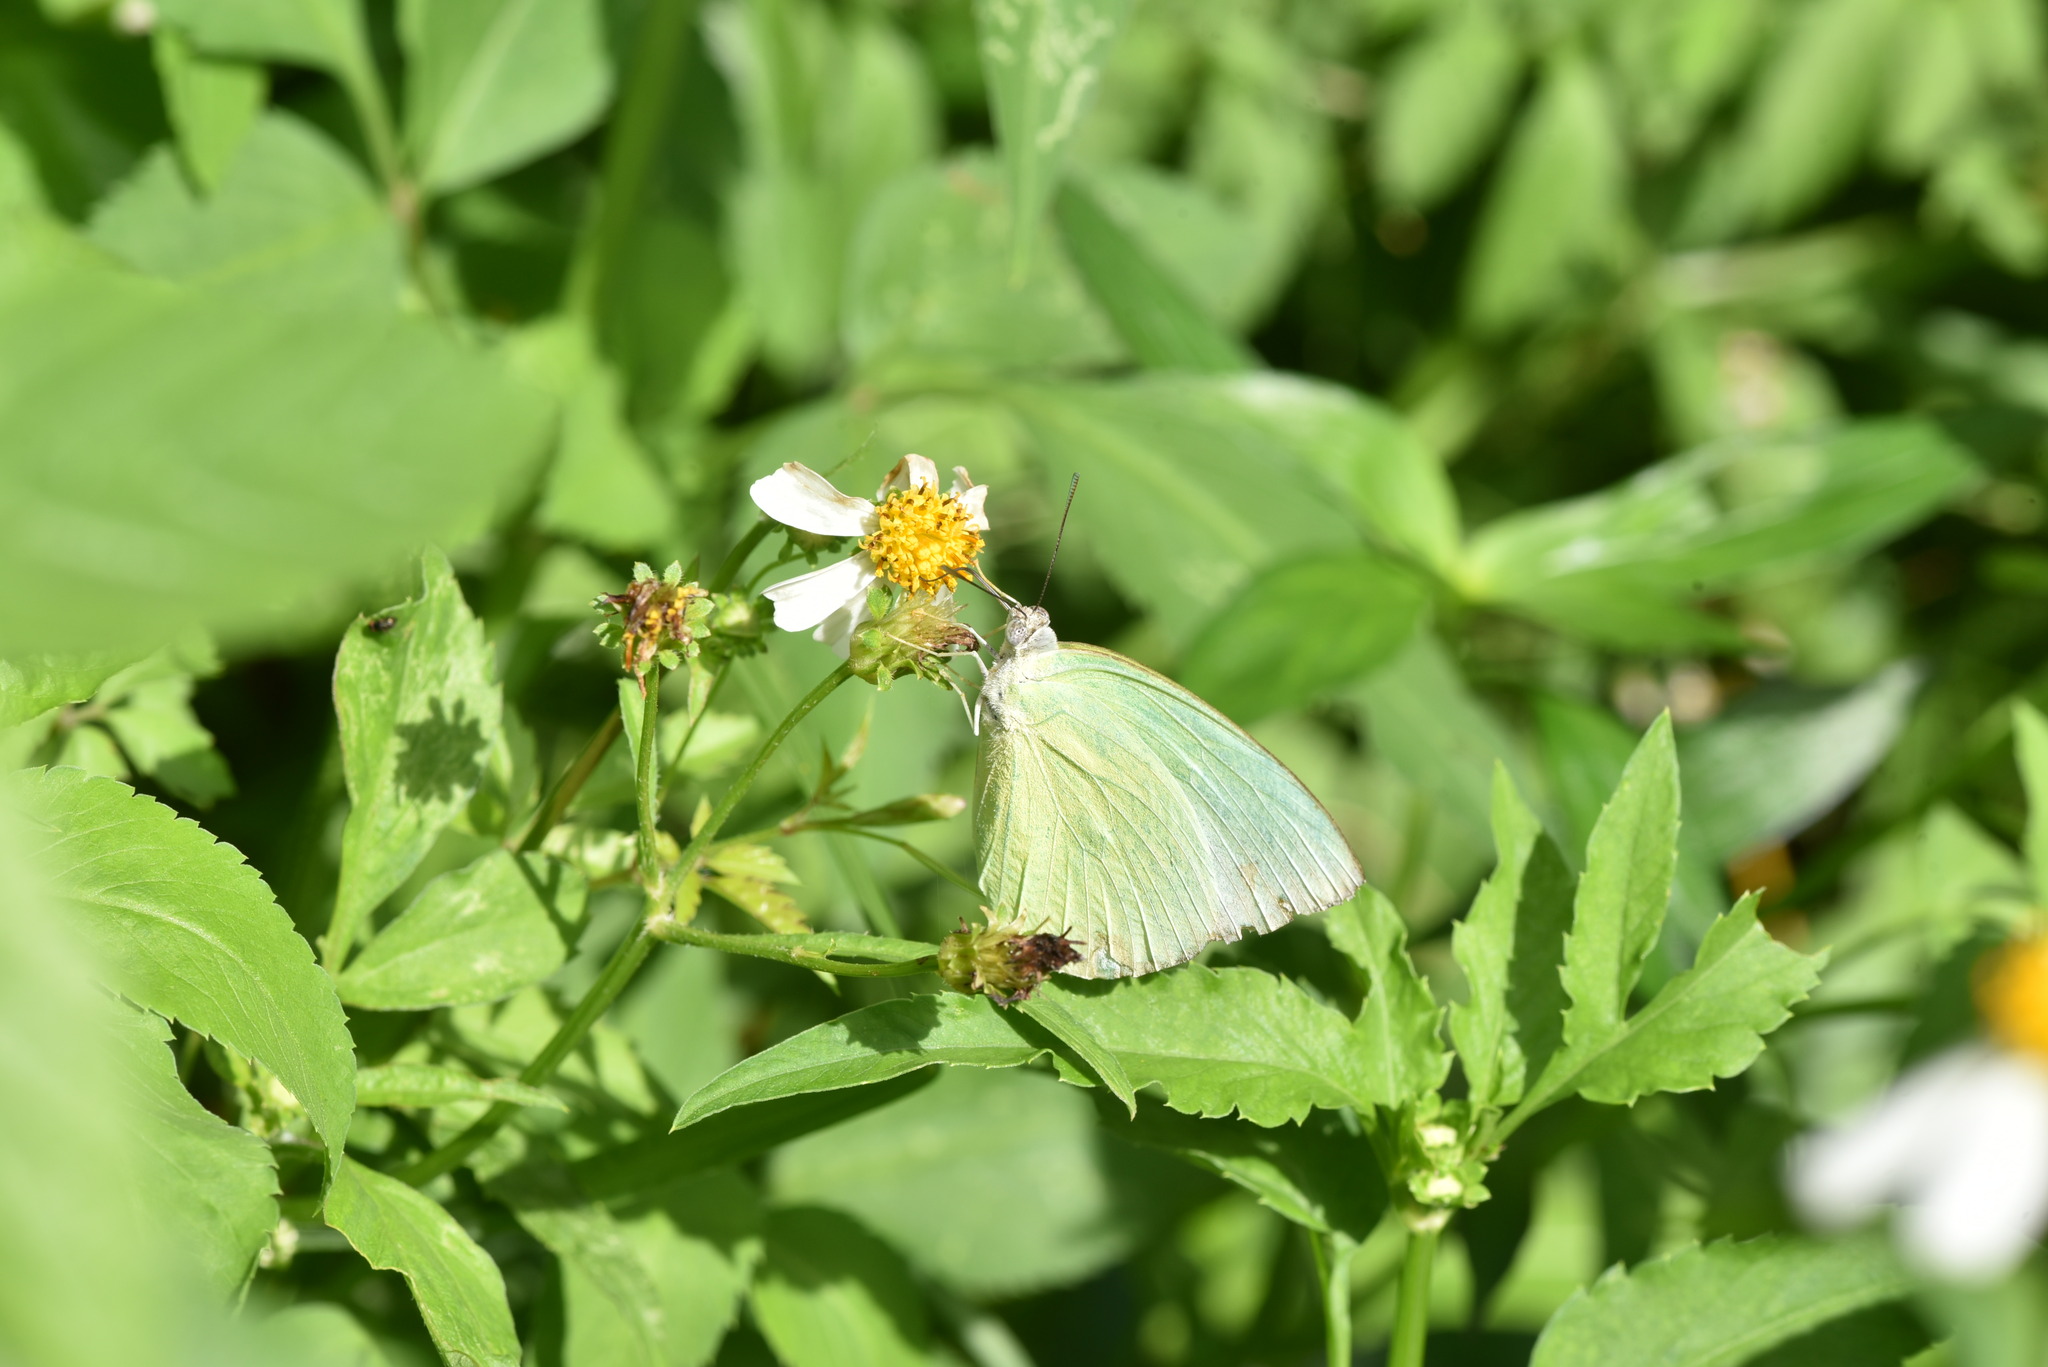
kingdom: Animalia
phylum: Arthropoda
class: Insecta
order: Lepidoptera
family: Pieridae
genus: Catopsilia
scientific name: Catopsilia pomona
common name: Common emigrant
